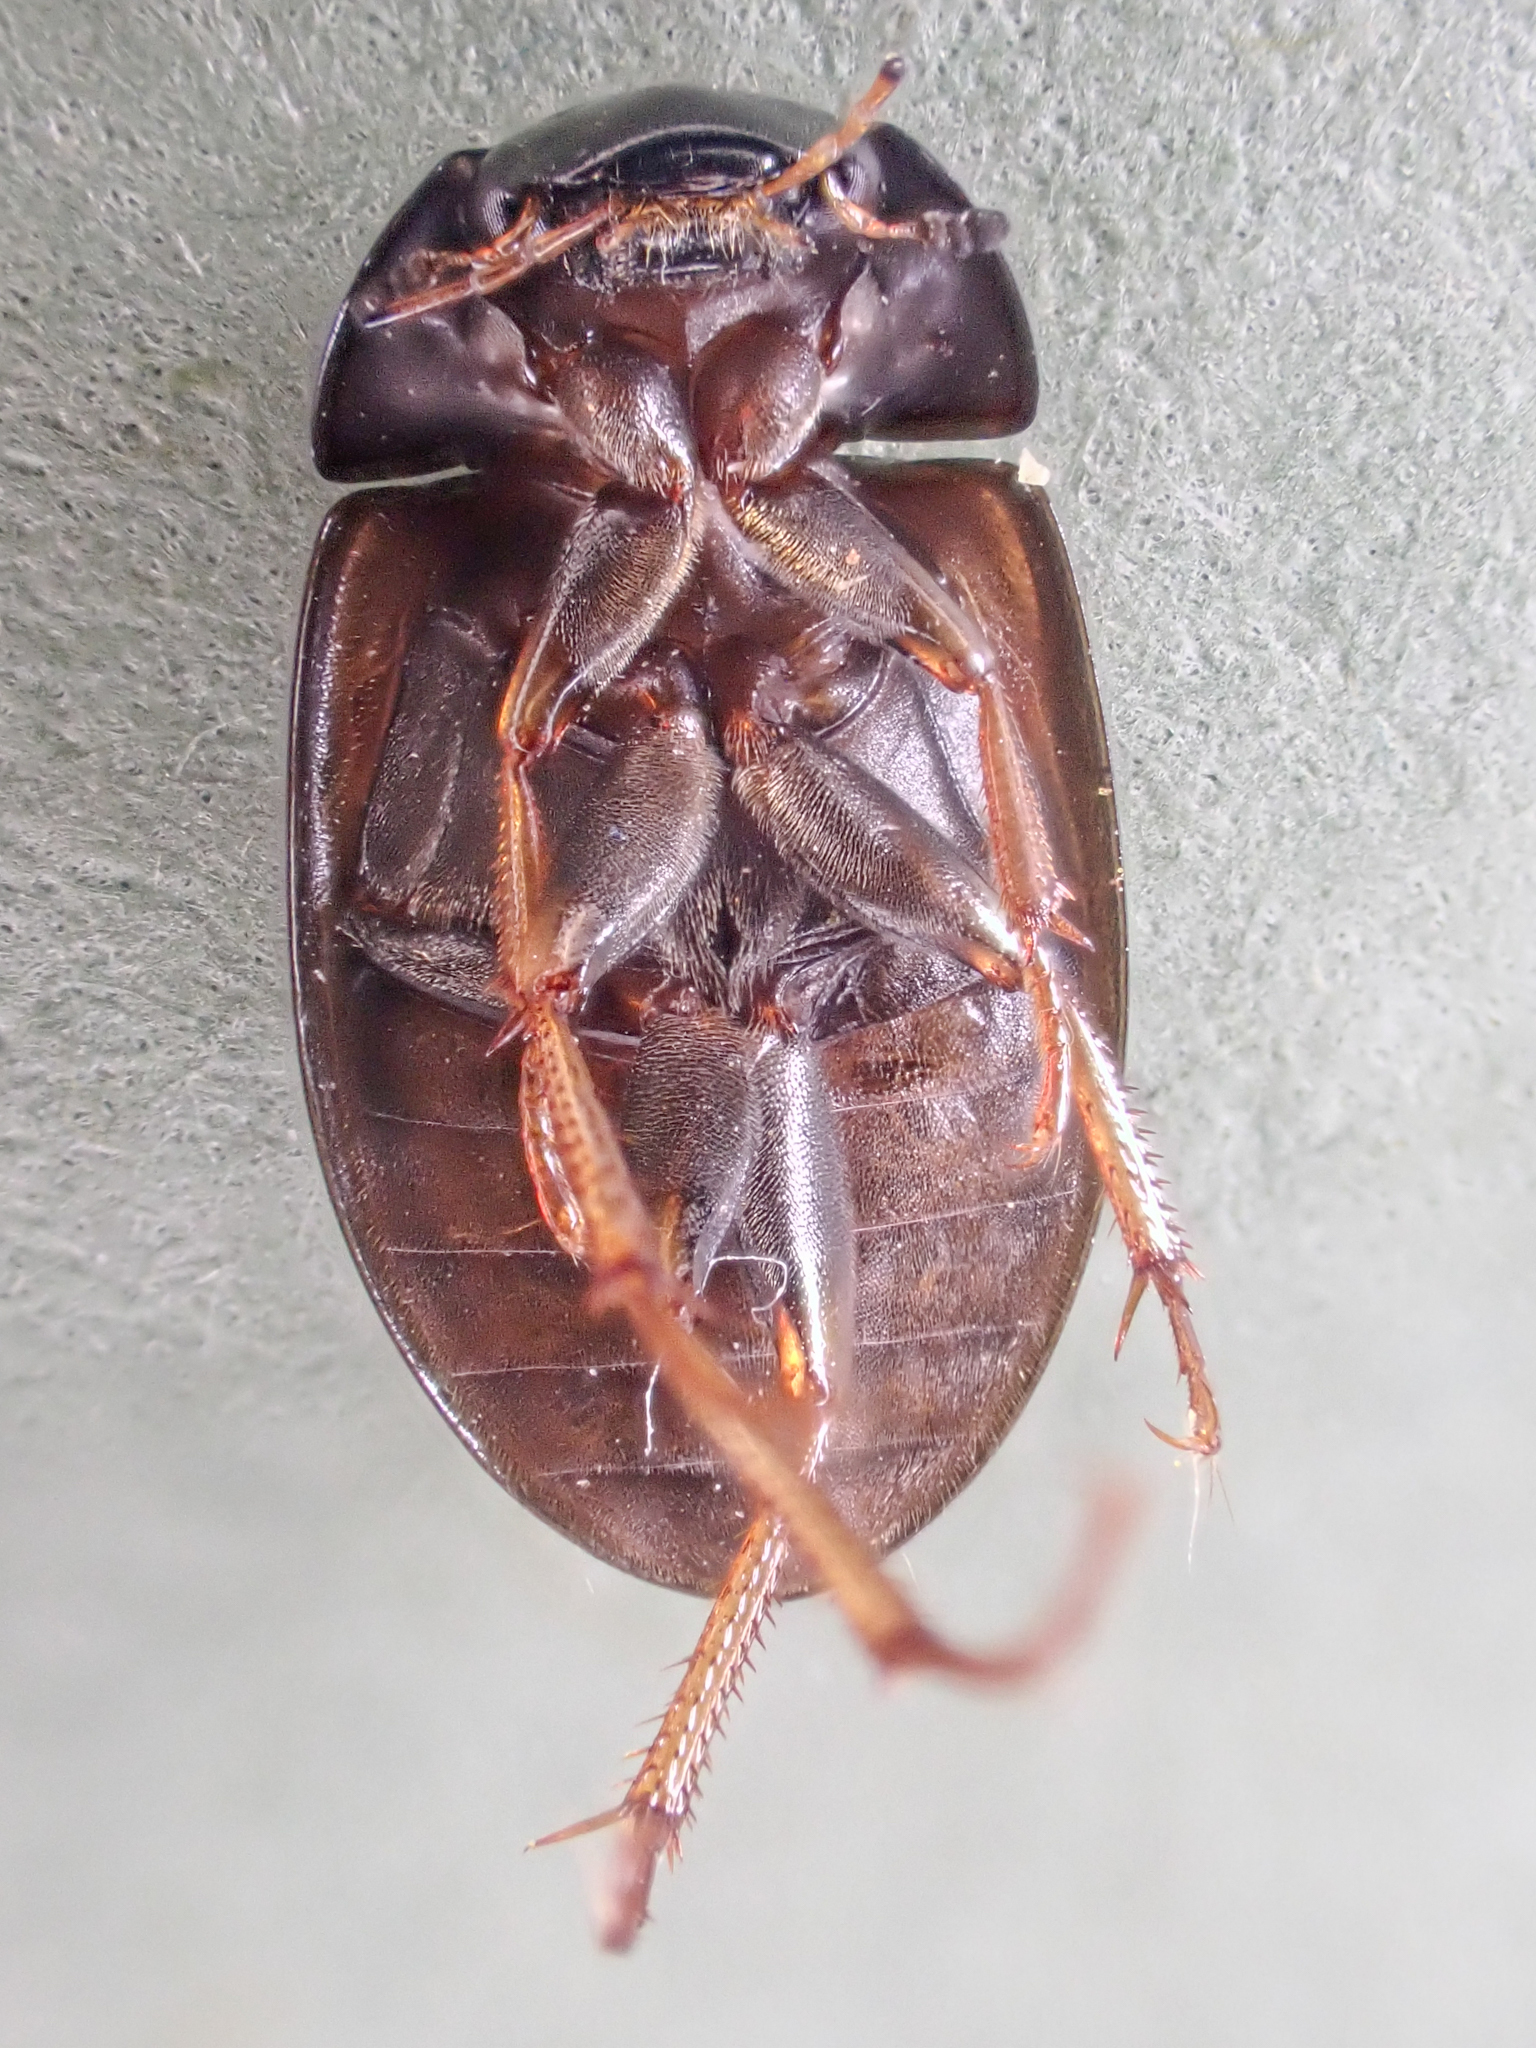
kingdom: Animalia
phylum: Arthropoda
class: Insecta
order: Coleoptera
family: Hydrophilidae
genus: Hydrobius
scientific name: Hydrobius fuscipes
